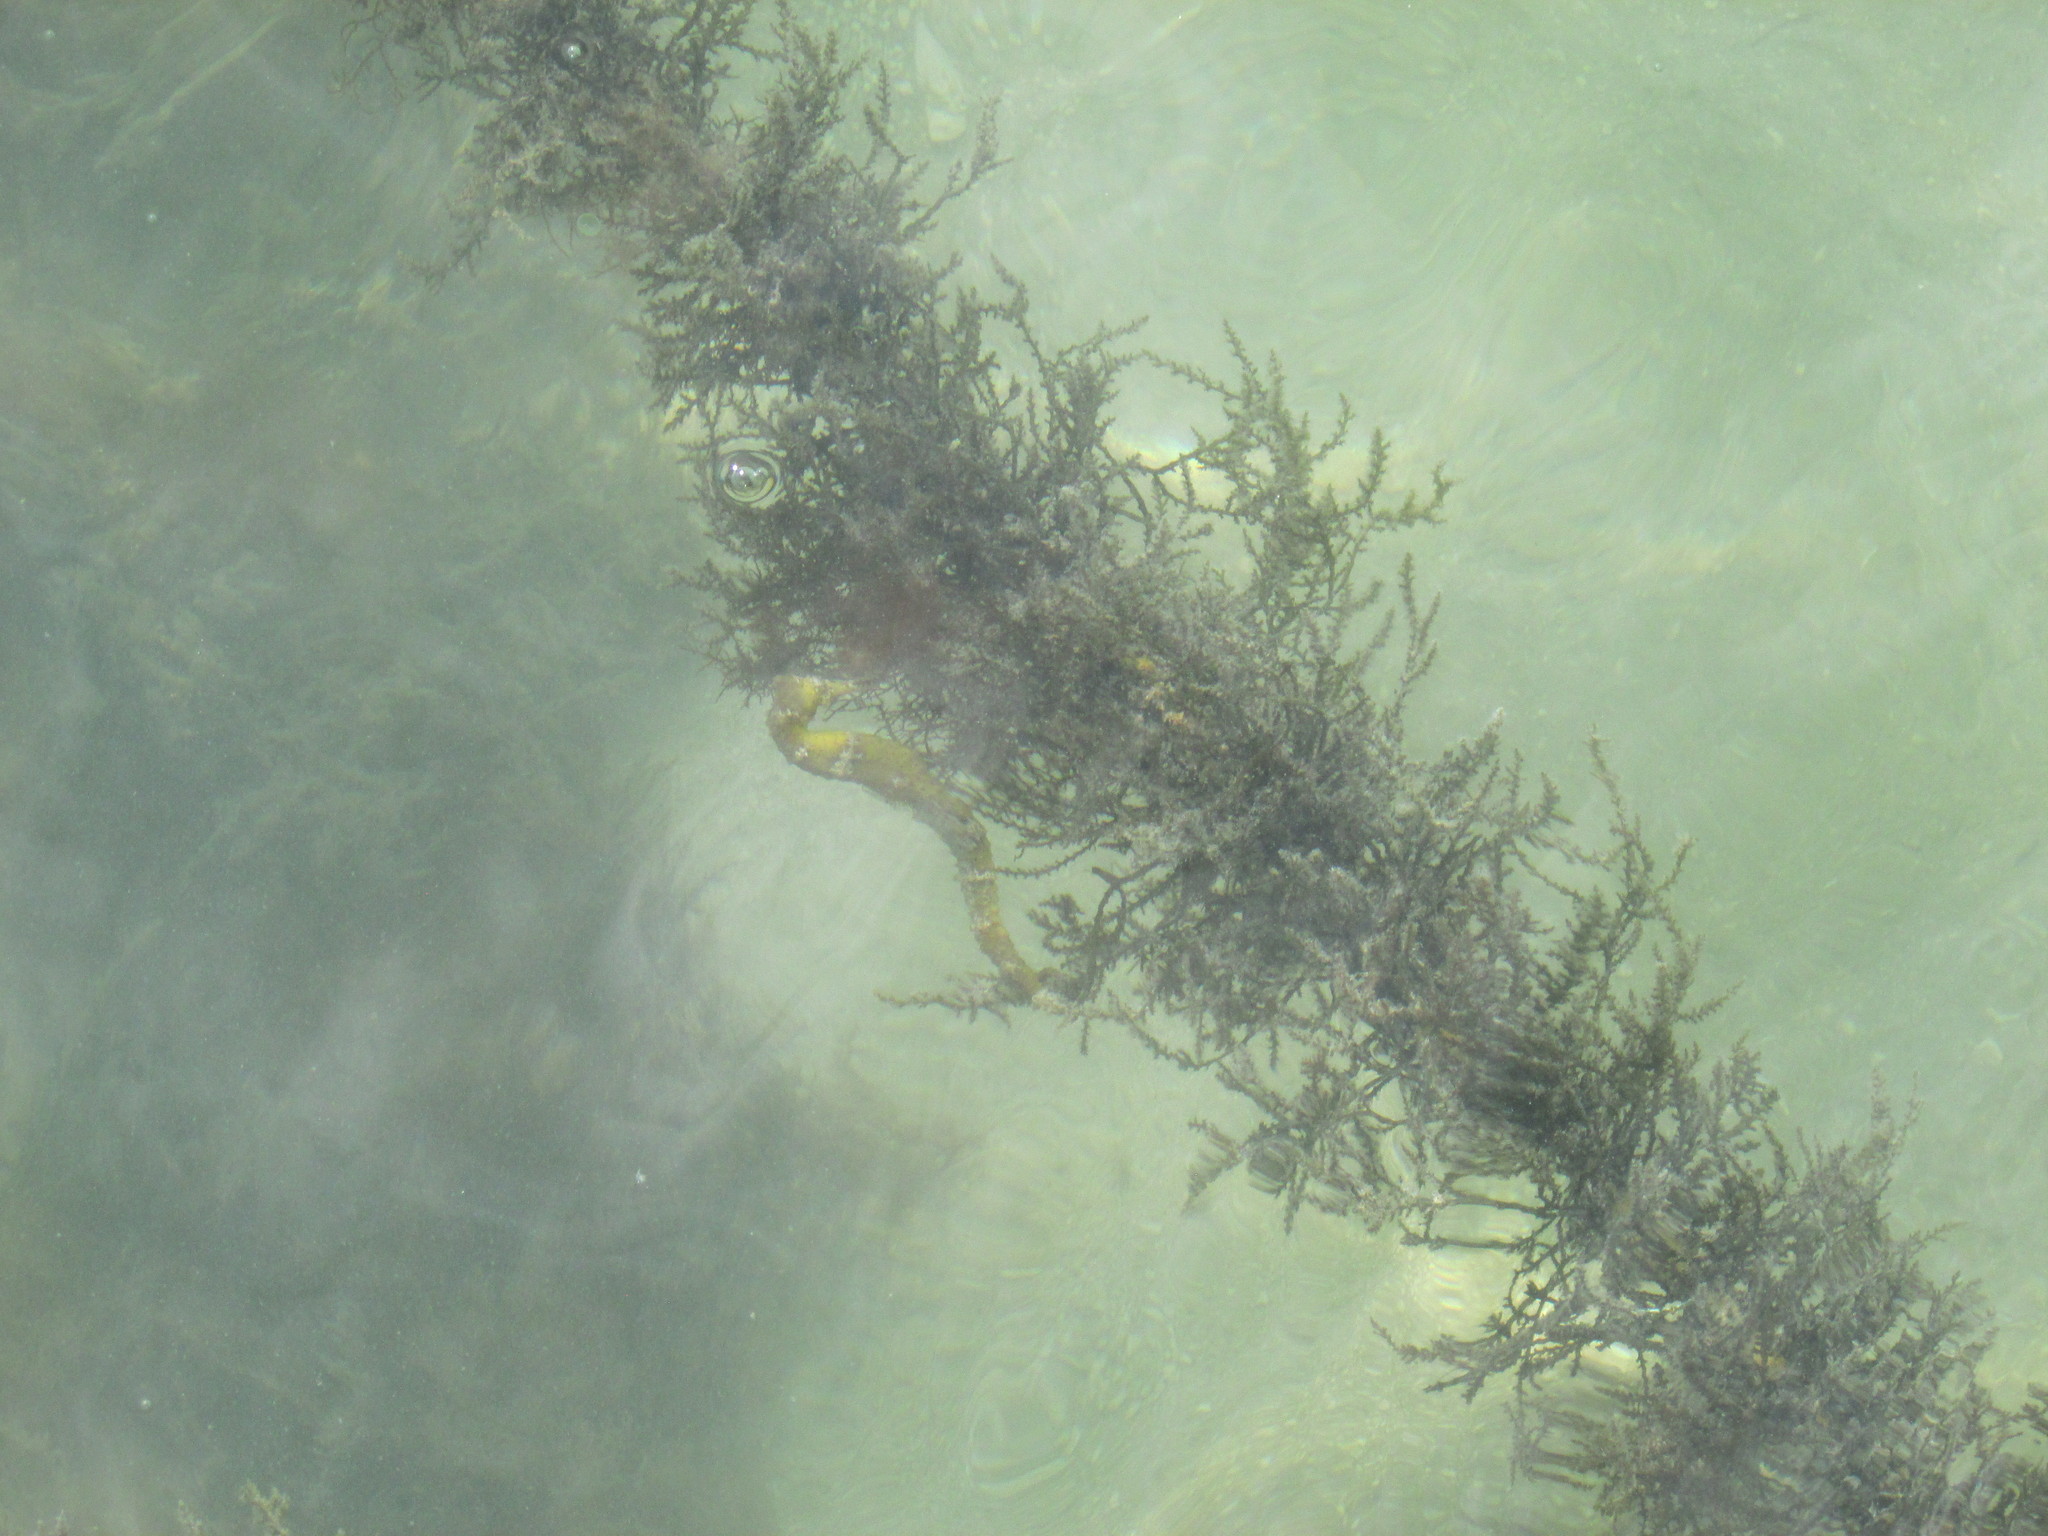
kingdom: Animalia
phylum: Chordata
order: Syngnathiformes
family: Syngnathidae
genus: Hippocampus
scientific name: Hippocampus reidi
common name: Slender seahorse
